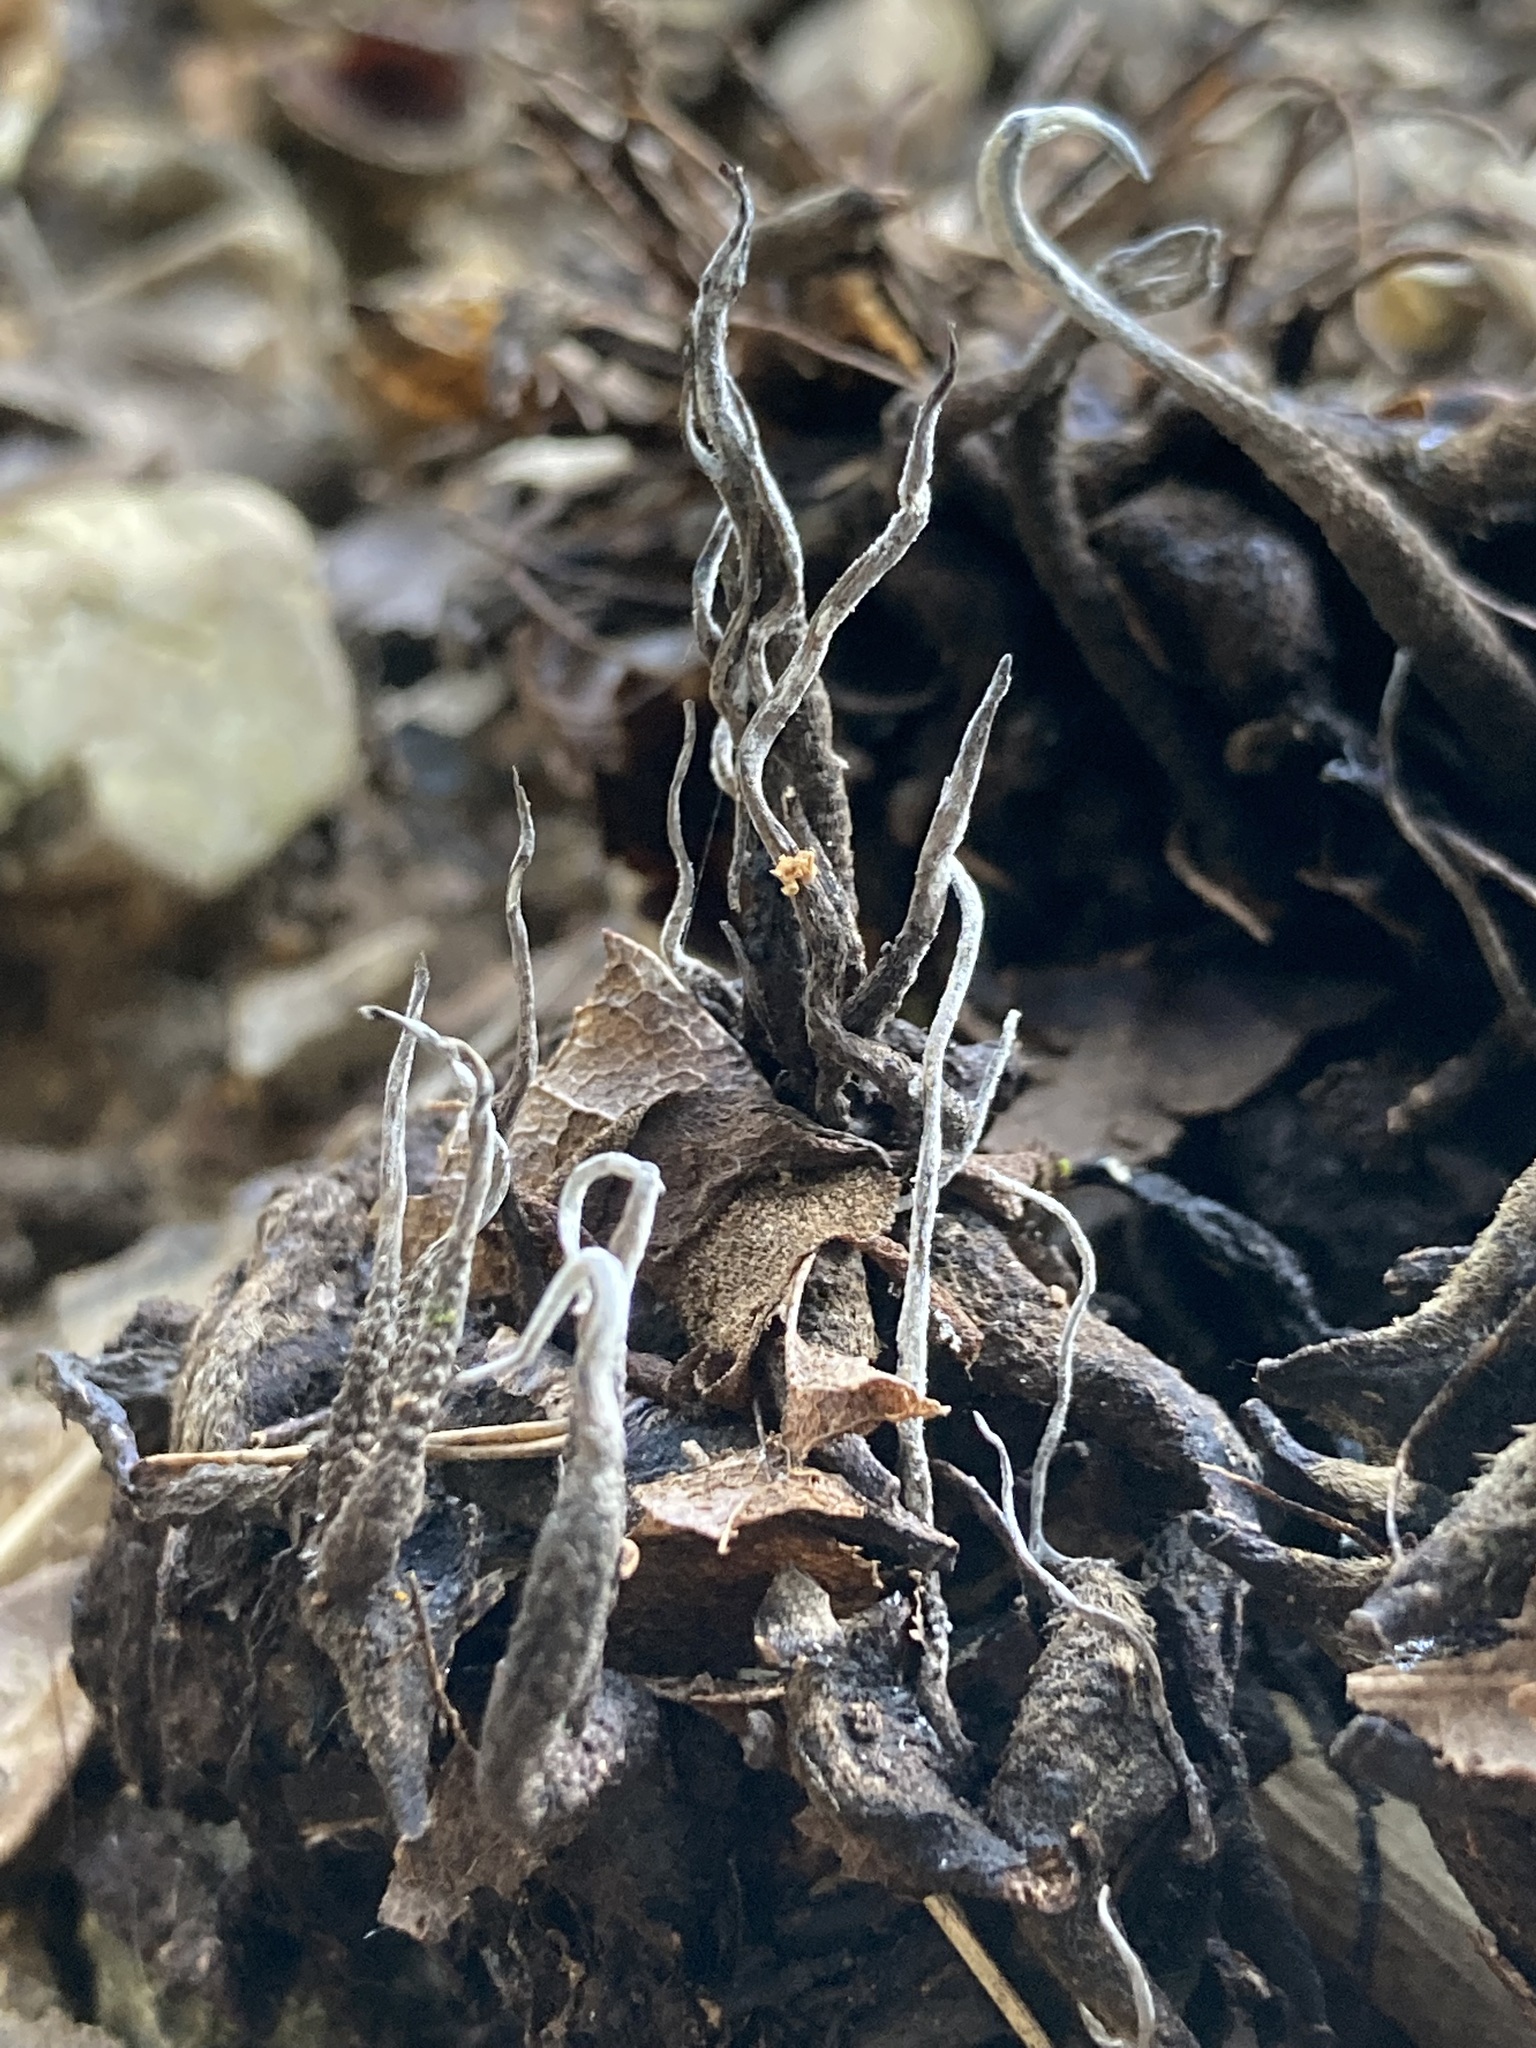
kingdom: Fungi
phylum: Ascomycota
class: Sordariomycetes
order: Xylariales
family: Xylariaceae
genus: Xylaria
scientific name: Xylaria magnoliae
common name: Magnolia-cone xylaria
